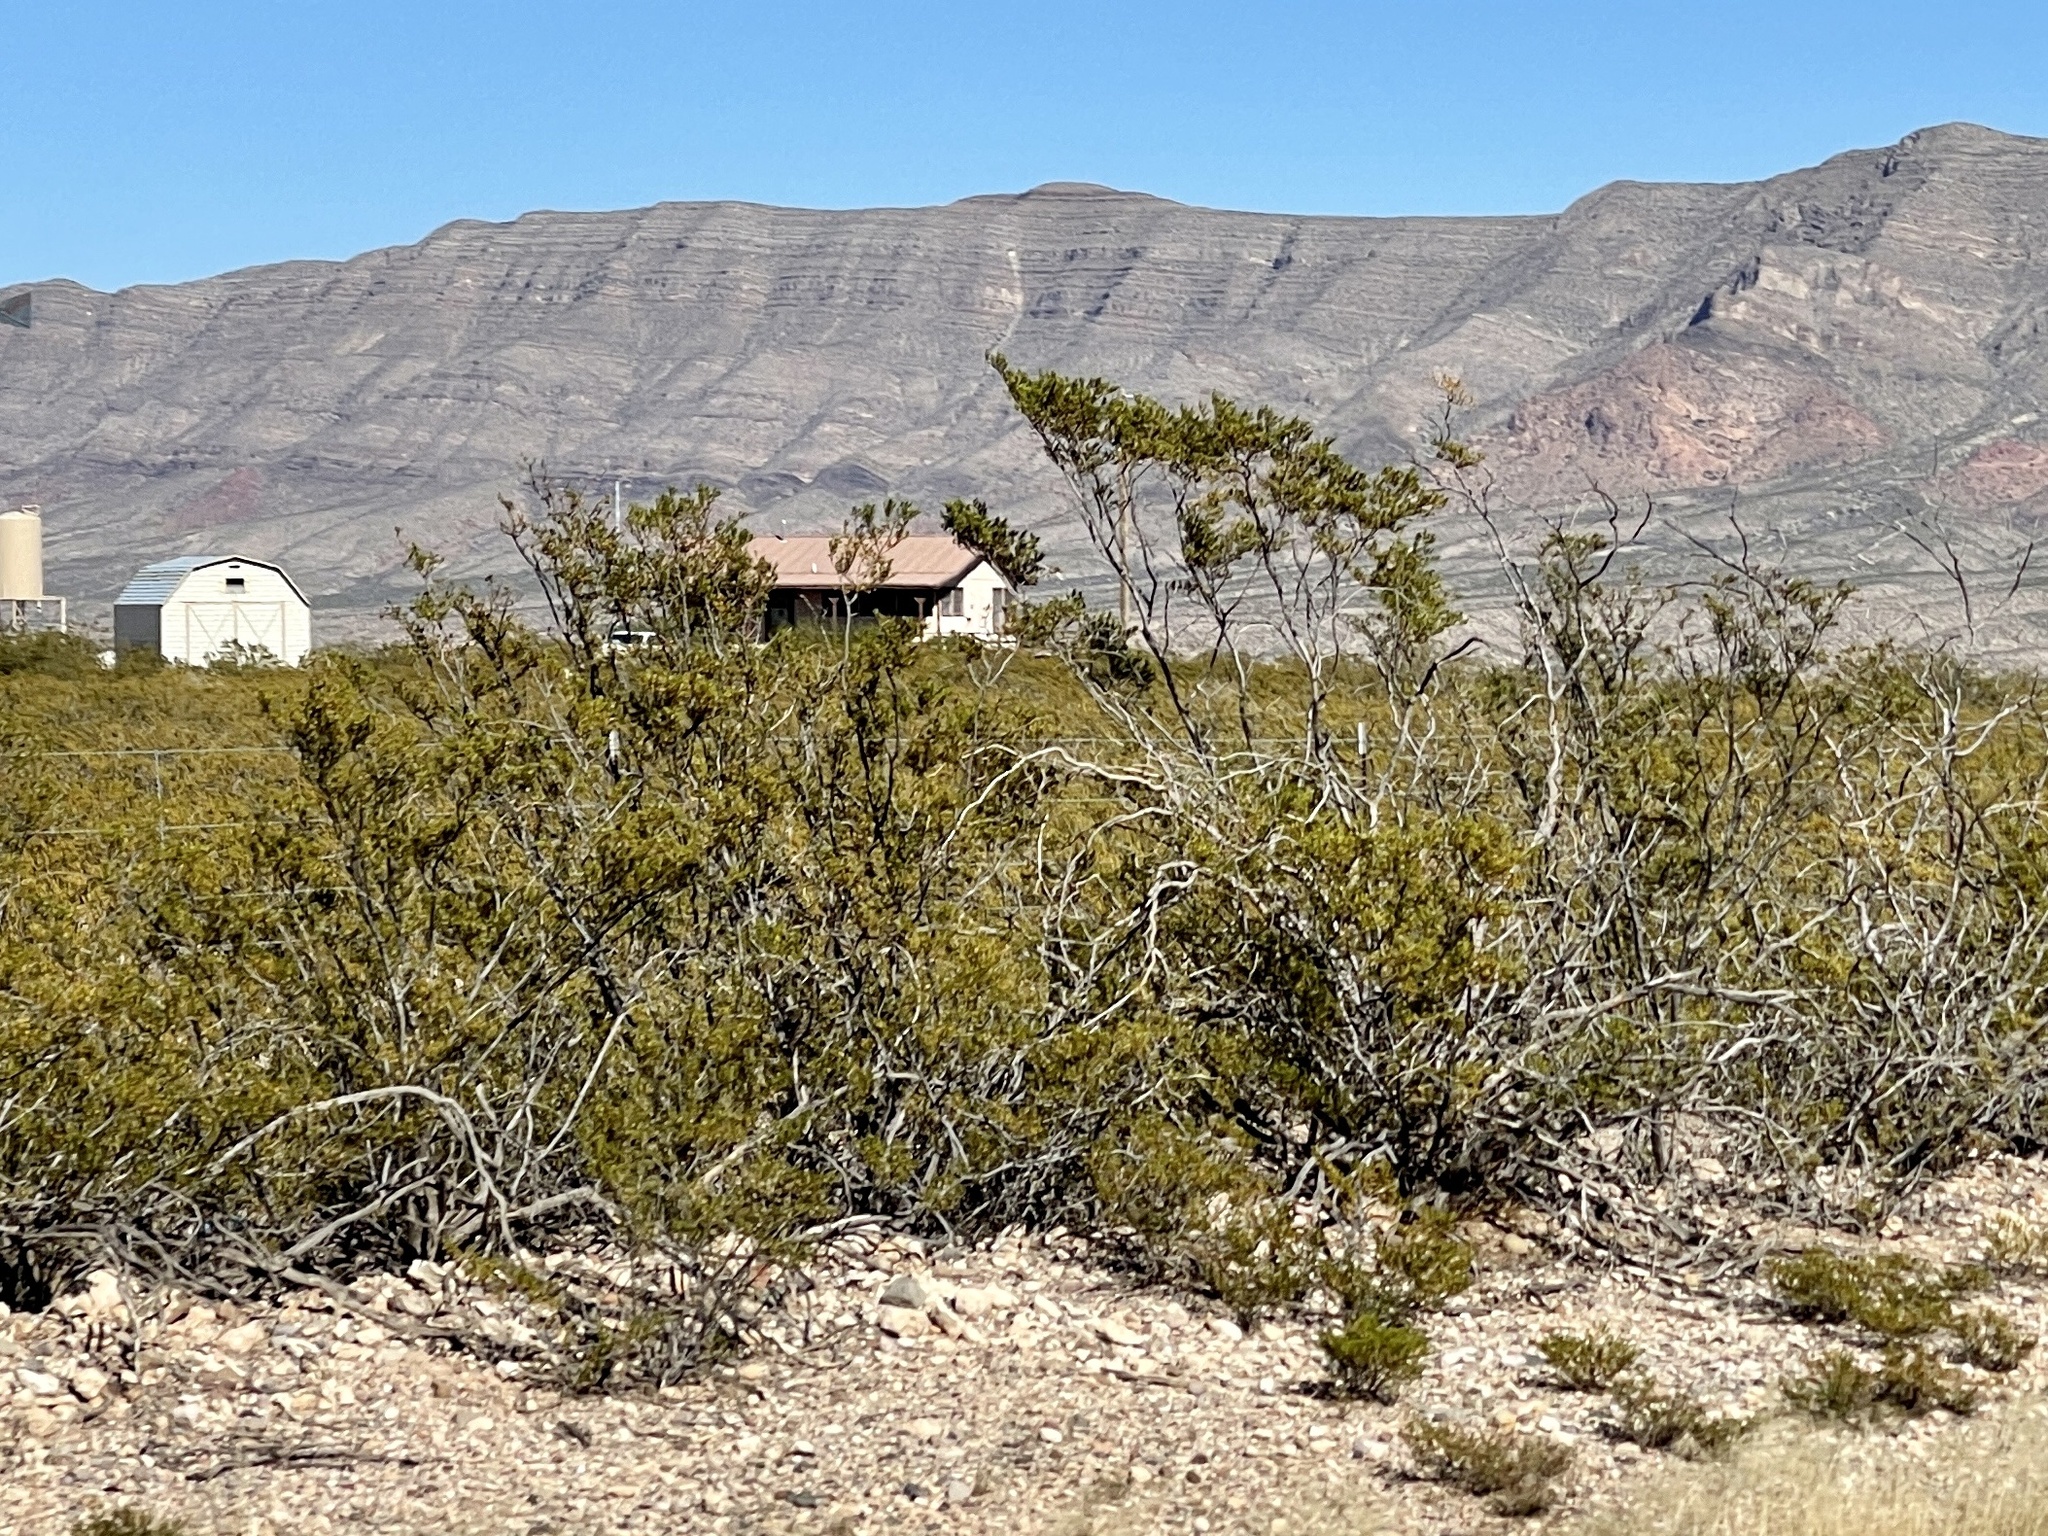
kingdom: Plantae
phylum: Tracheophyta
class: Magnoliopsida
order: Zygophyllales
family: Zygophyllaceae
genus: Larrea
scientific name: Larrea tridentata
